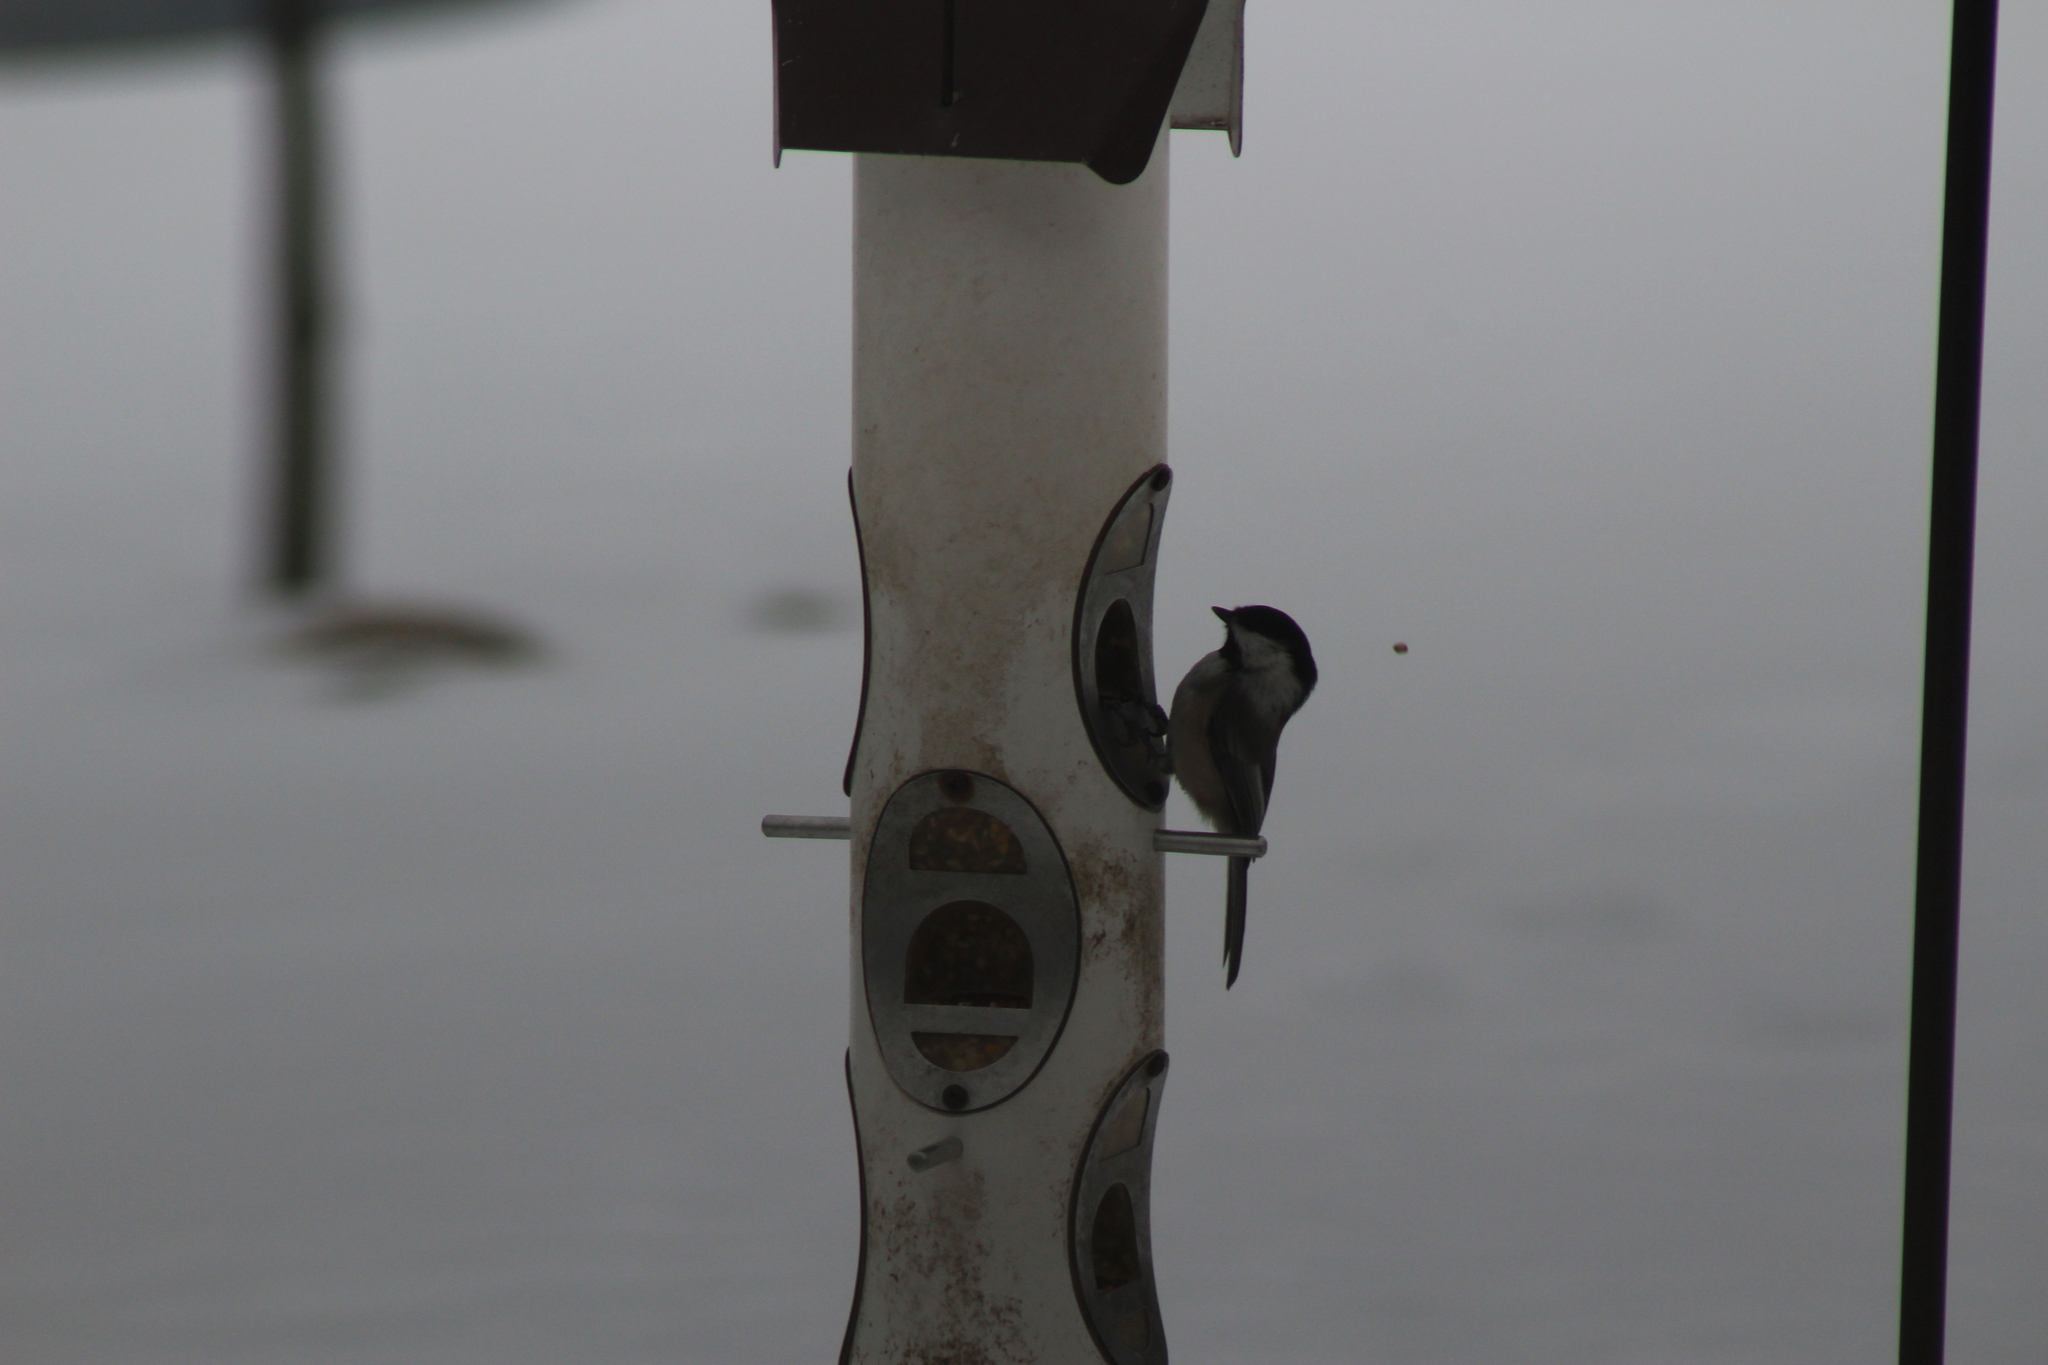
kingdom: Animalia
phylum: Chordata
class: Aves
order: Passeriformes
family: Paridae
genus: Poecile
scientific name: Poecile atricapillus
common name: Black-capped chickadee
